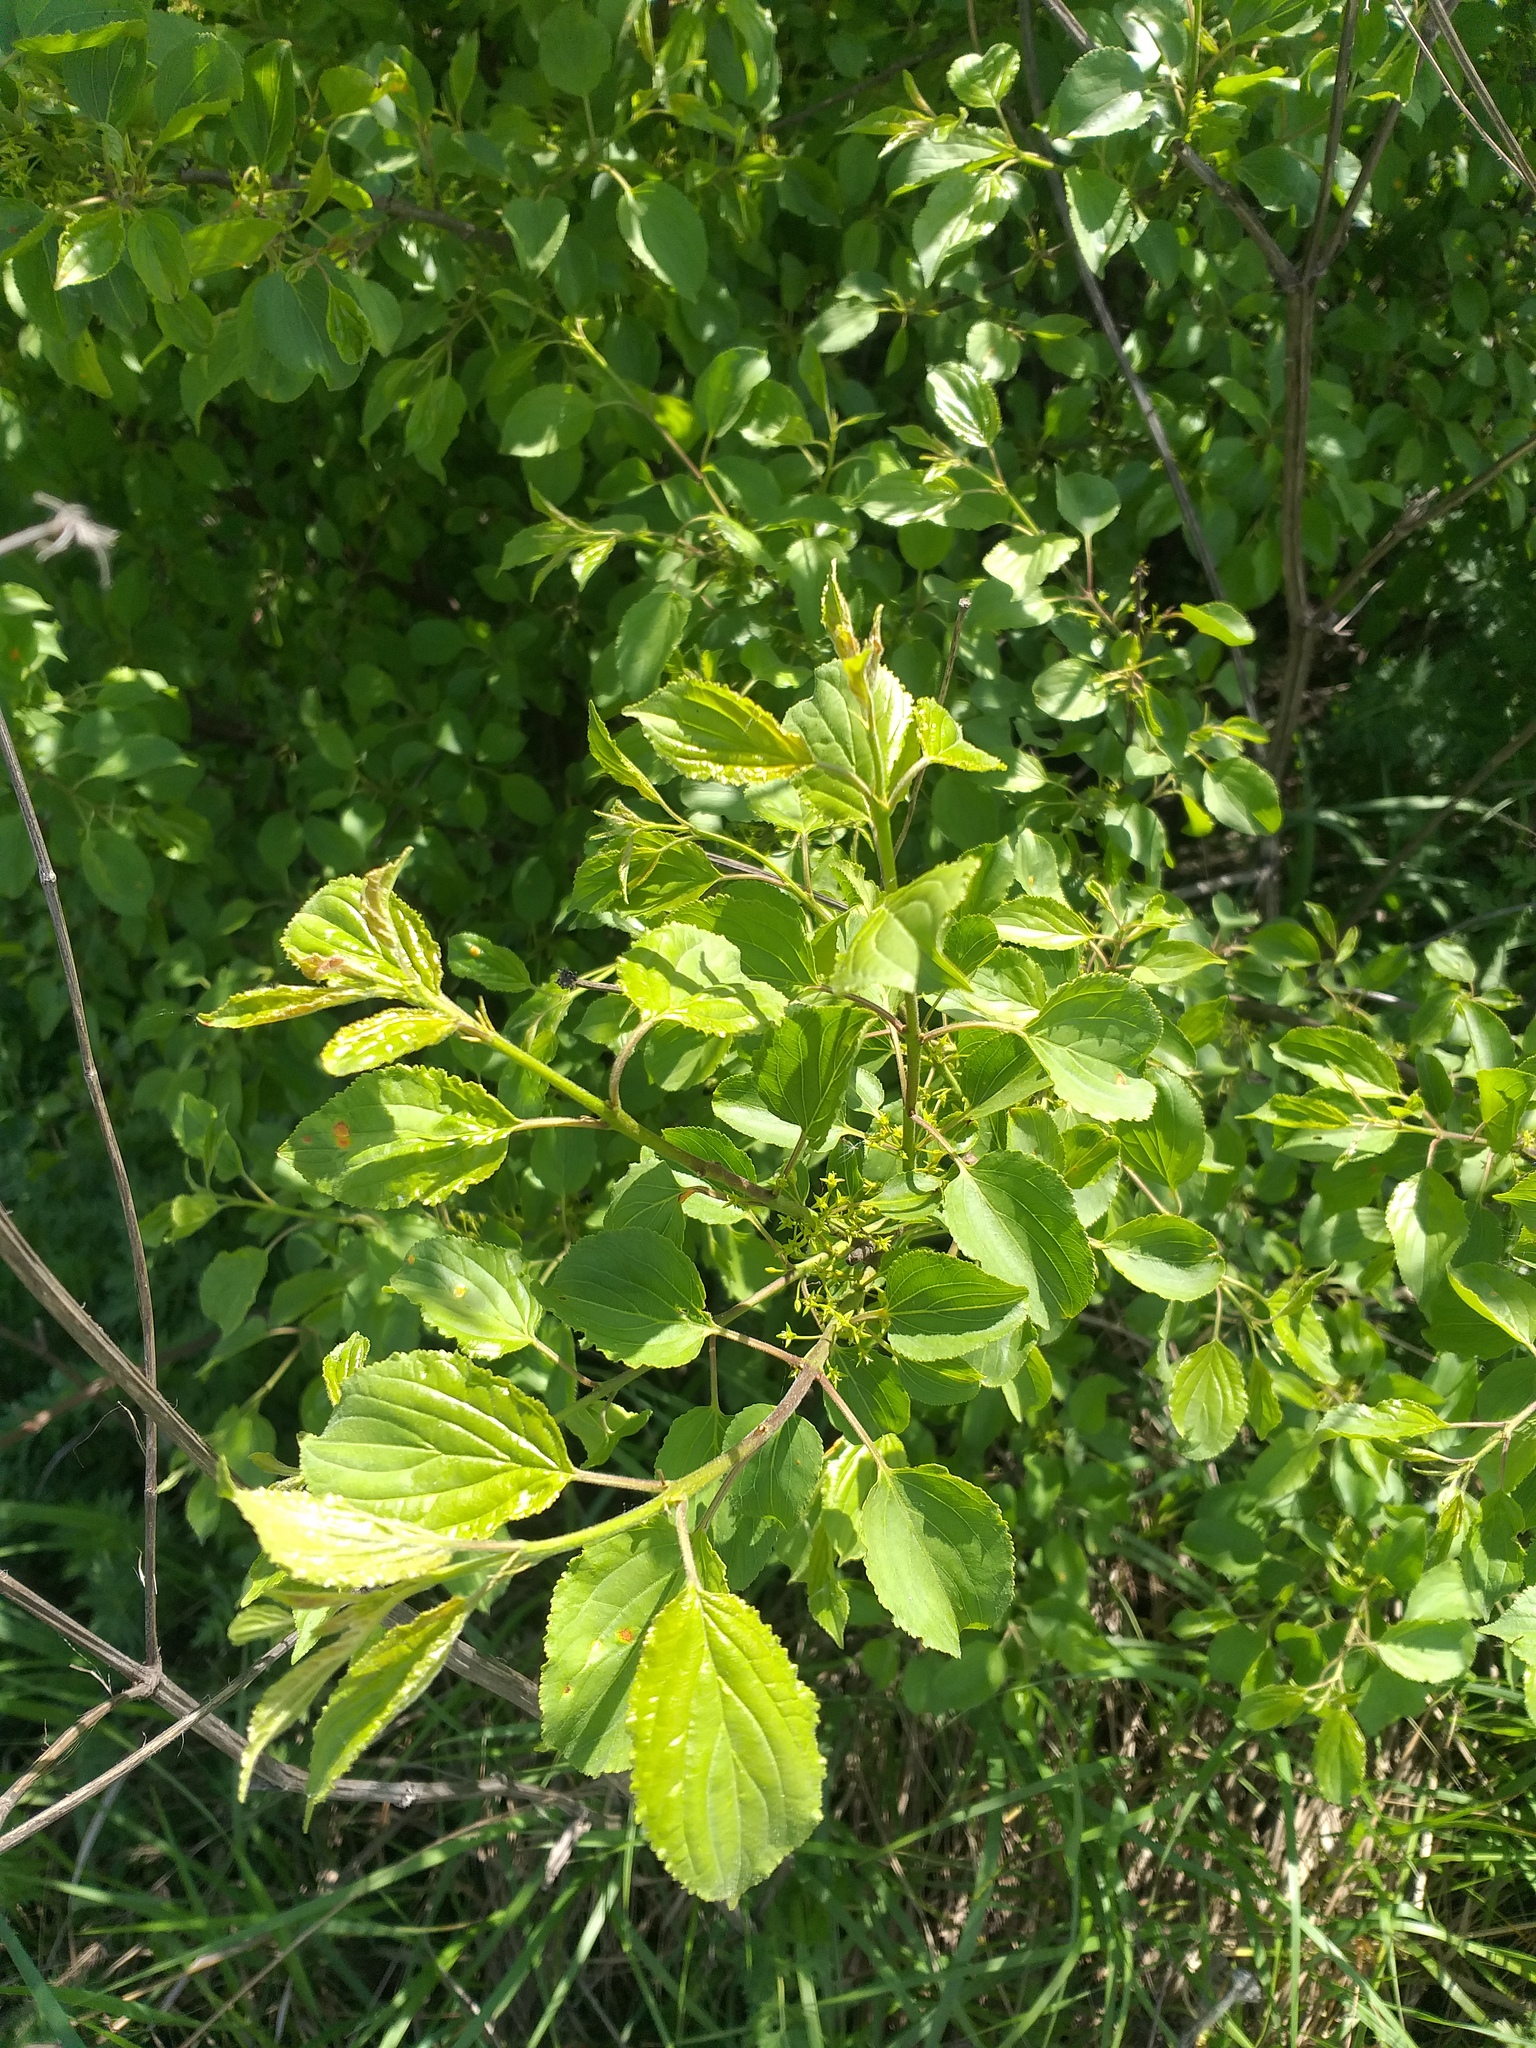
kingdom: Plantae
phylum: Tracheophyta
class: Magnoliopsida
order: Rosales
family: Rhamnaceae
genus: Rhamnus
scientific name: Rhamnus cathartica
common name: Common buckthorn
